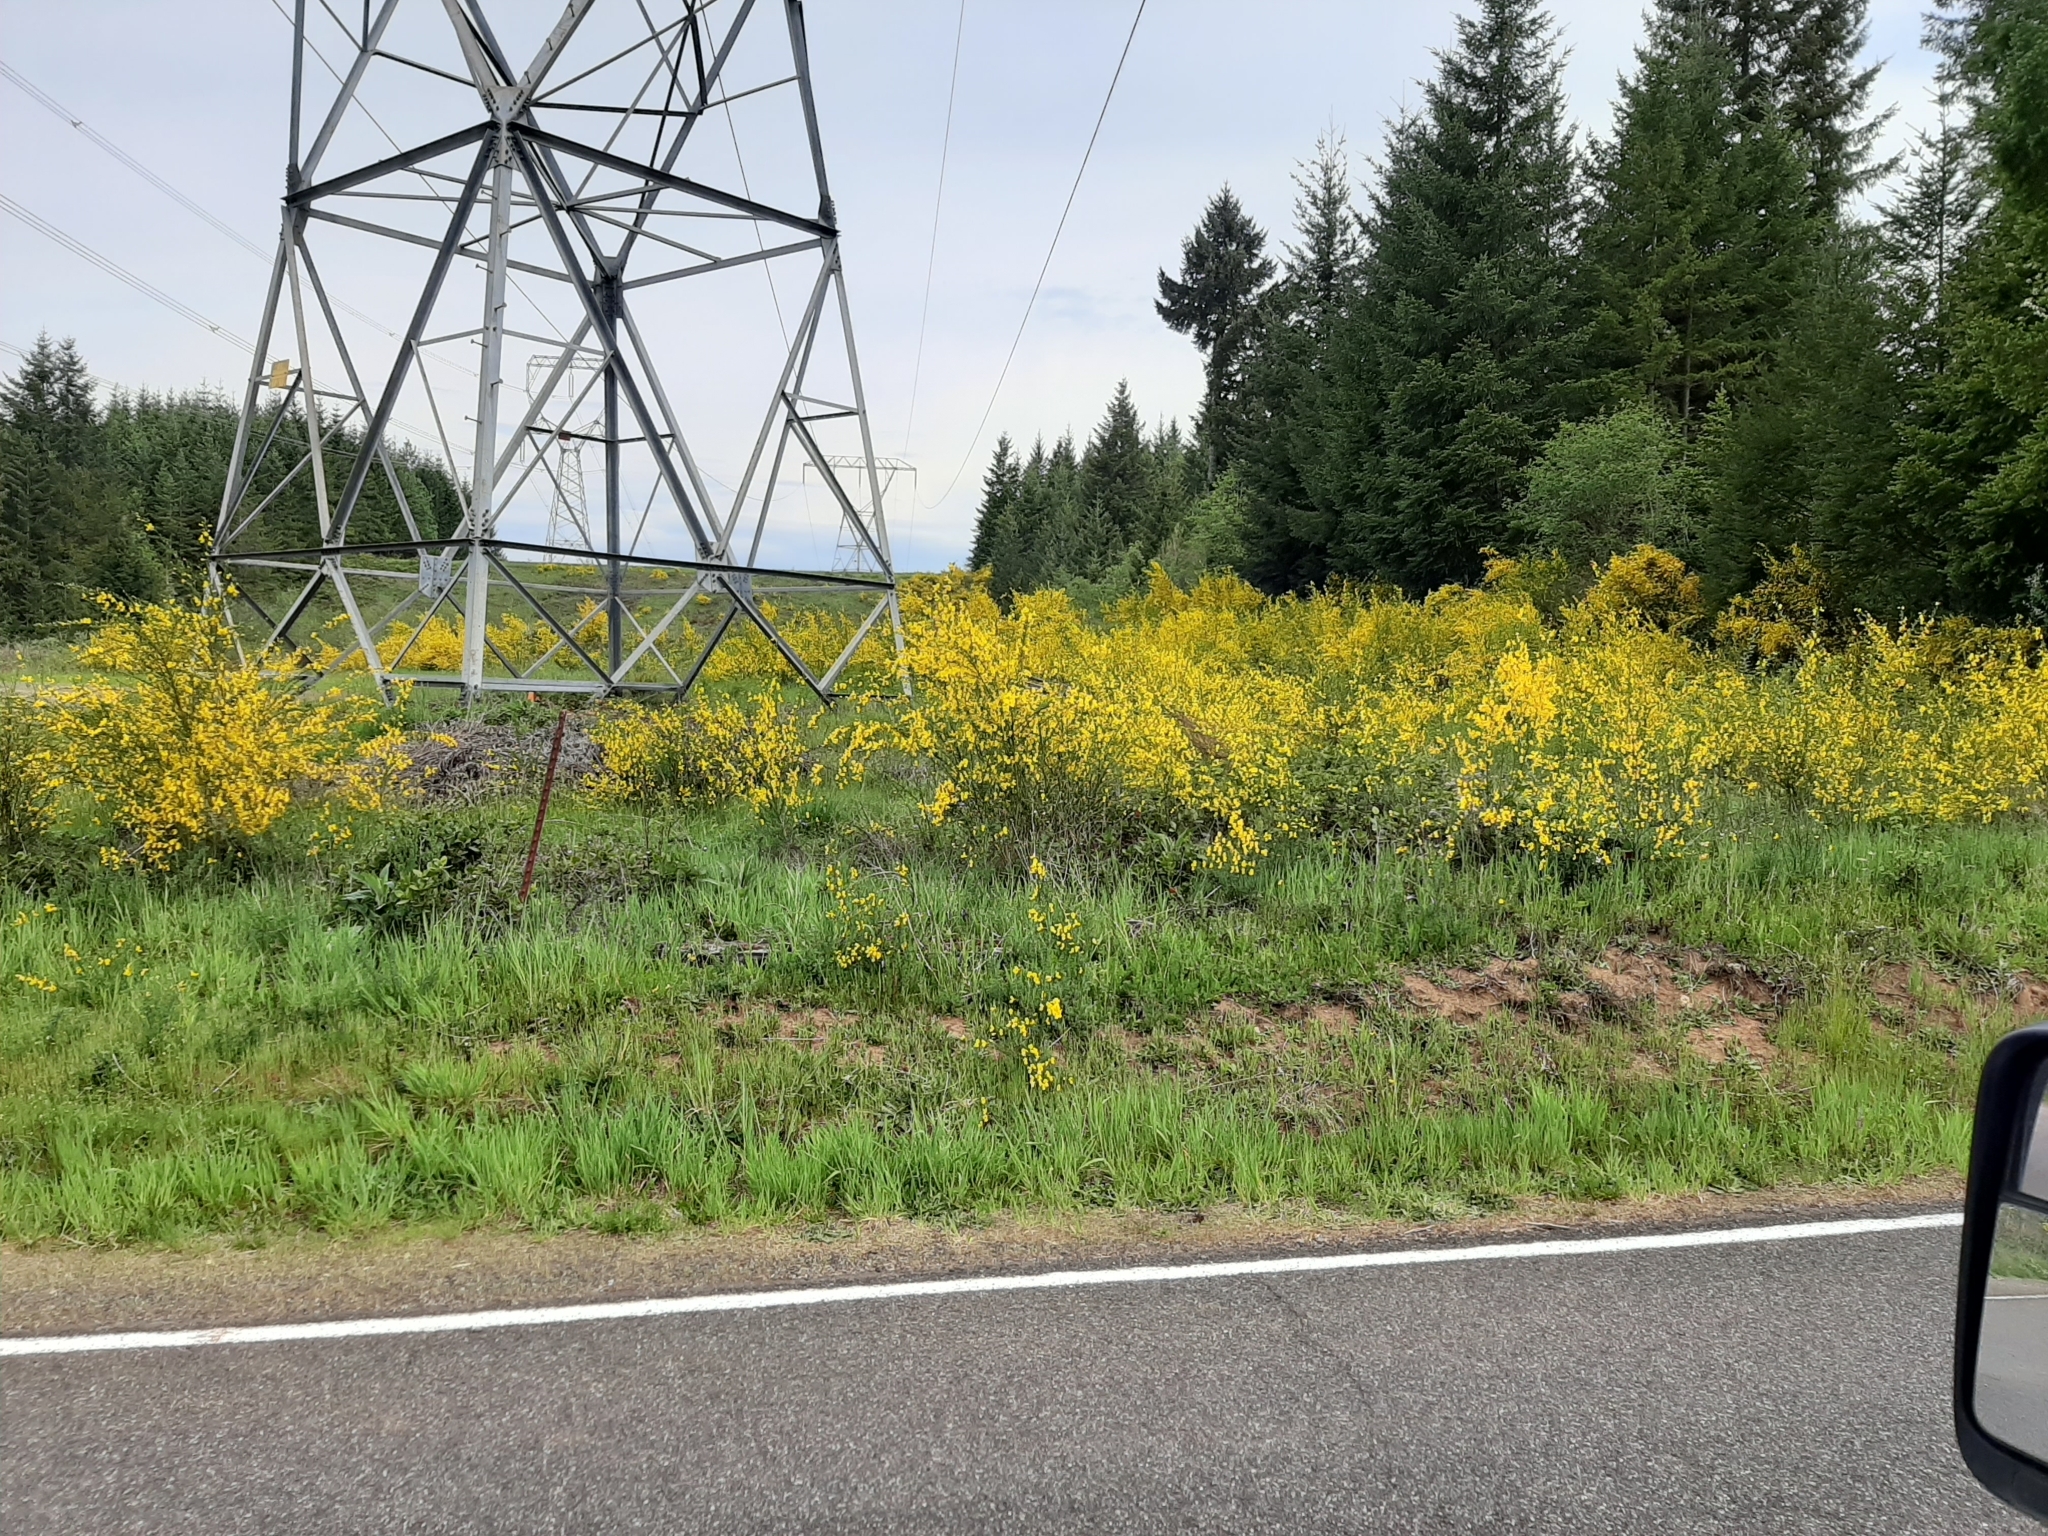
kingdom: Plantae
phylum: Tracheophyta
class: Magnoliopsida
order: Fabales
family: Fabaceae
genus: Cytisus
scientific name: Cytisus scoparius
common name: Scotch broom
